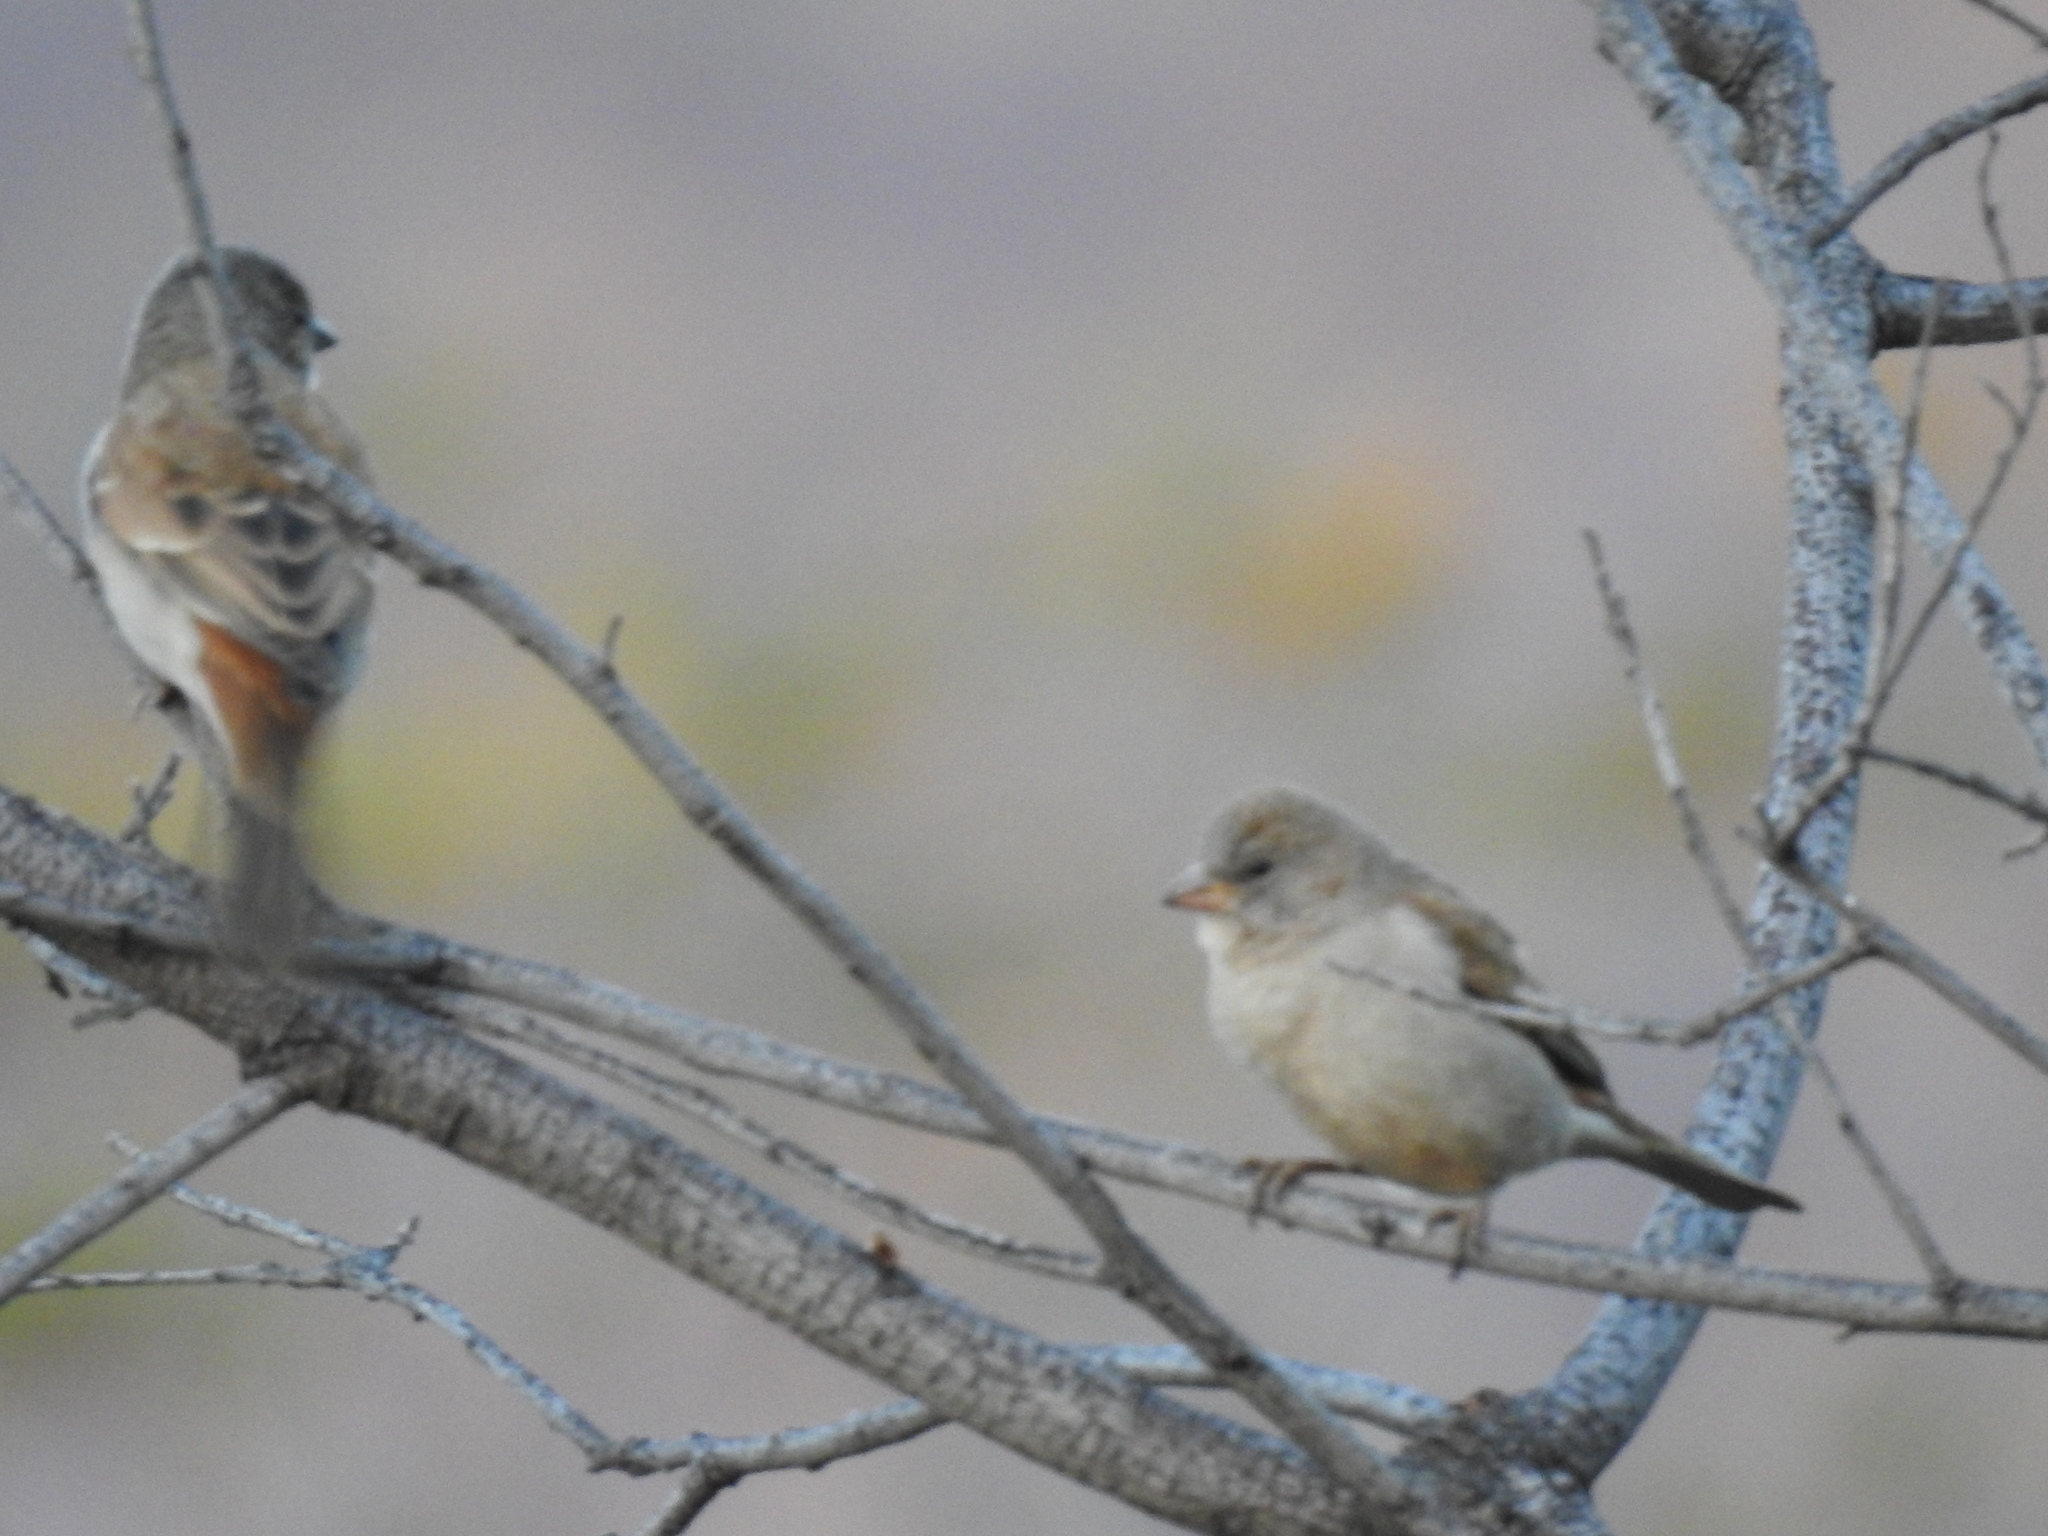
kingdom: Animalia
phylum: Chordata
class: Aves
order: Passeriformes
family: Passeridae
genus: Passer
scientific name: Passer diffusus
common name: Southern grey-headed sparrow
